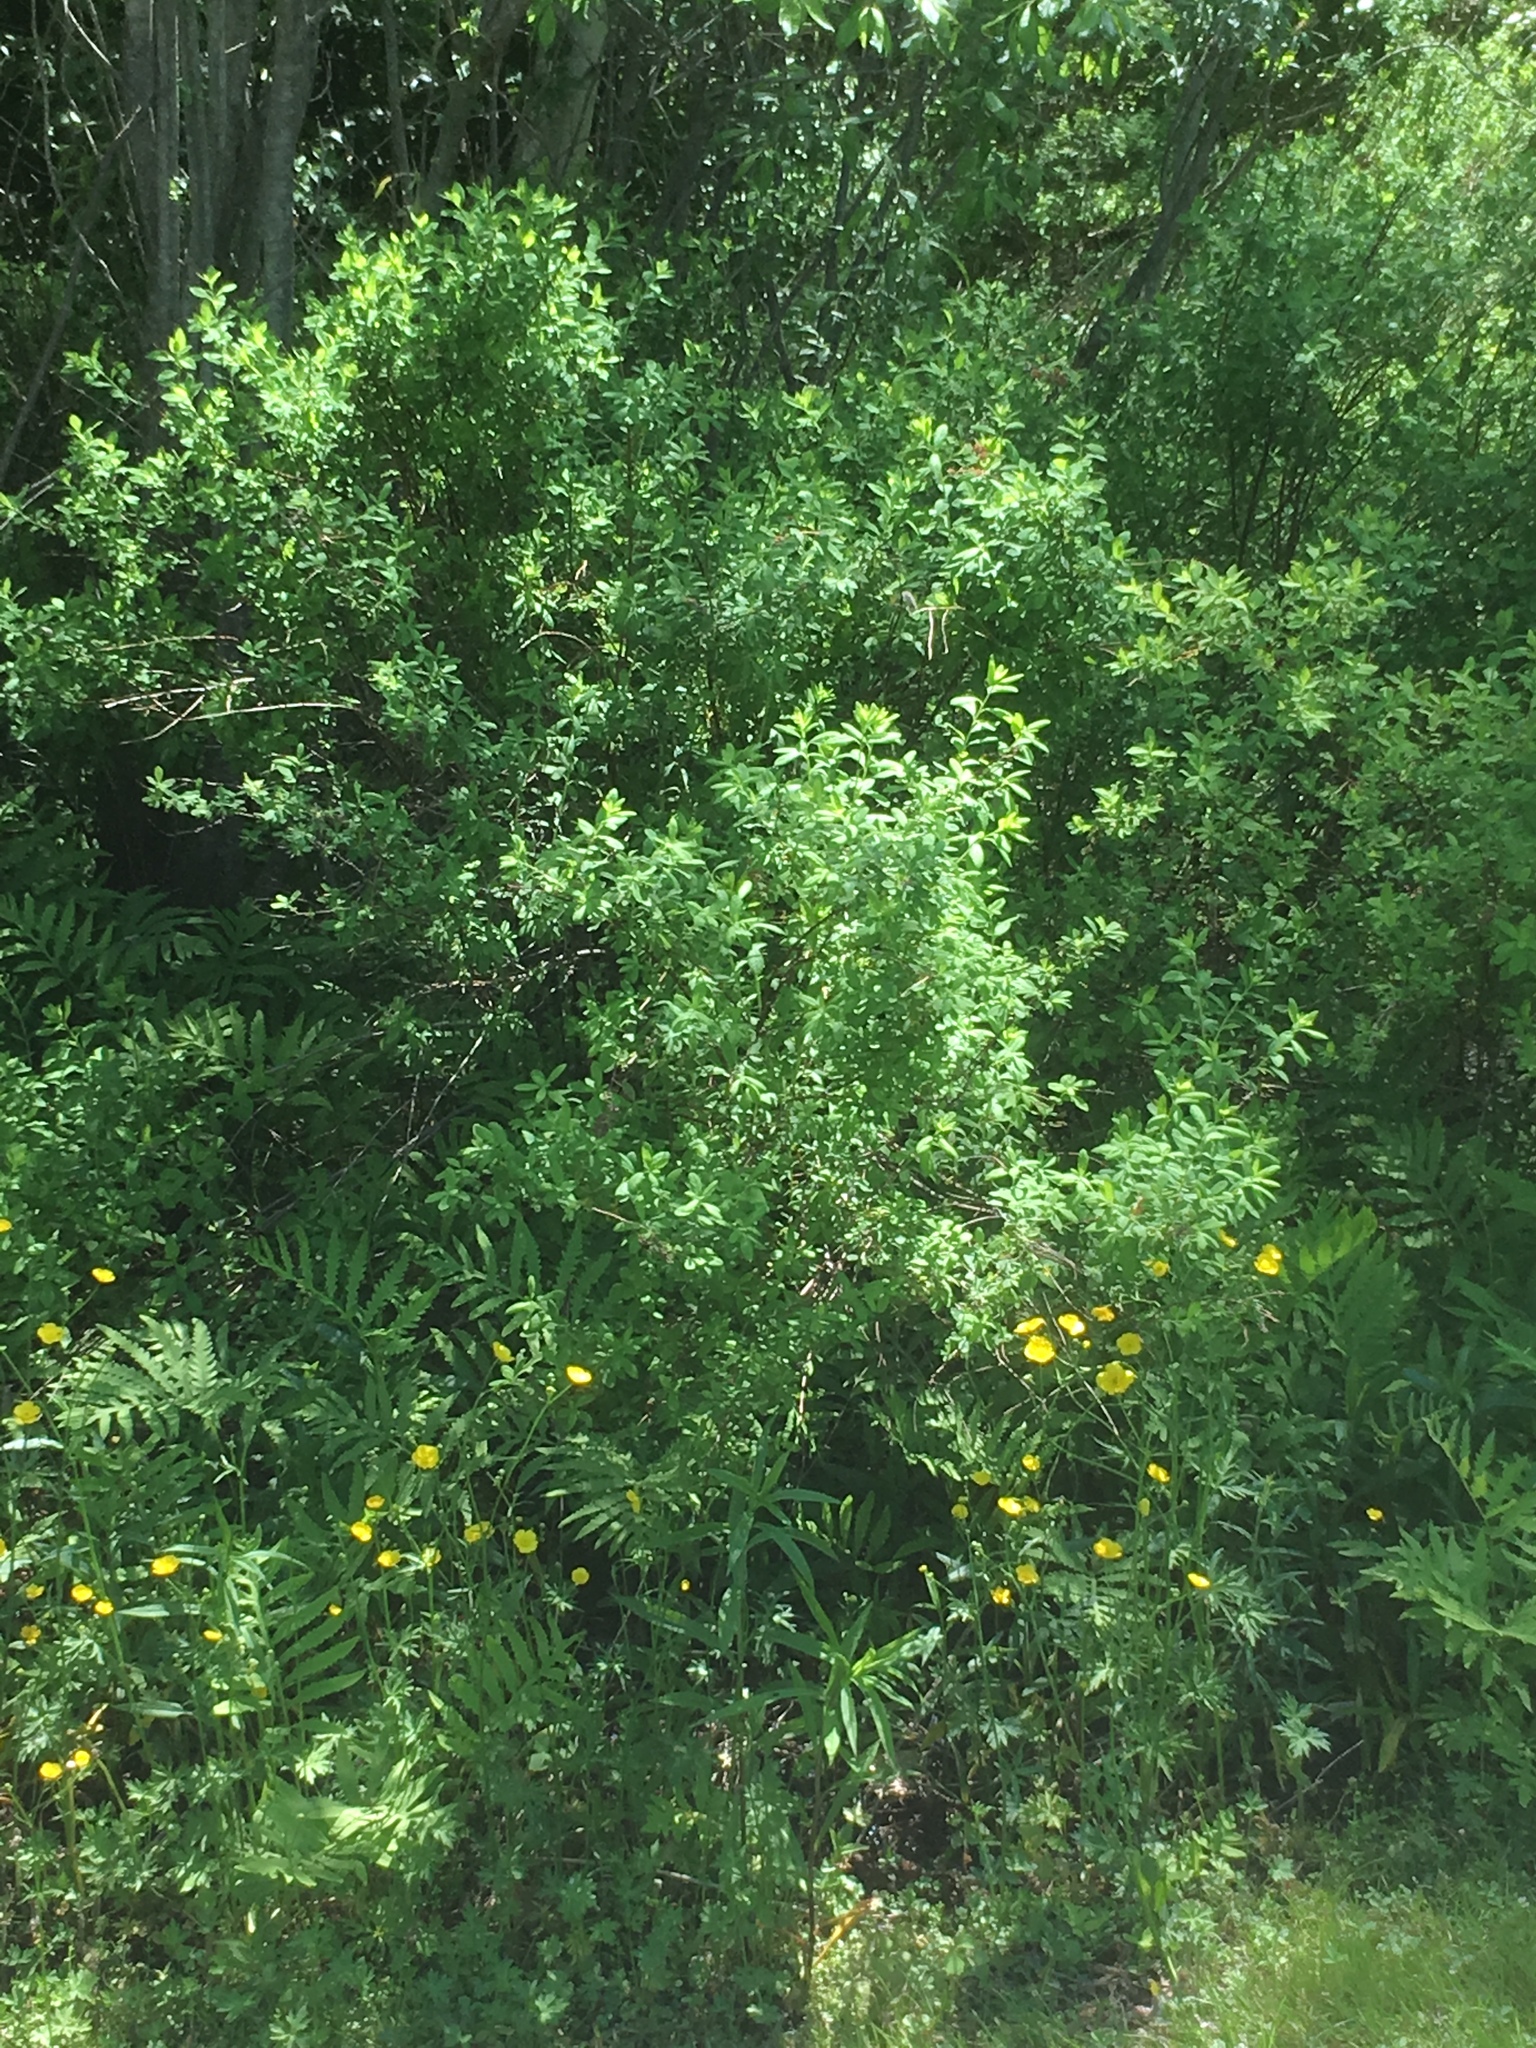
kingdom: Plantae
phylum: Tracheophyta
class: Polypodiopsida
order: Polypodiales
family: Onocleaceae
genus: Onoclea
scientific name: Onoclea sensibilis
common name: Sensitive fern
